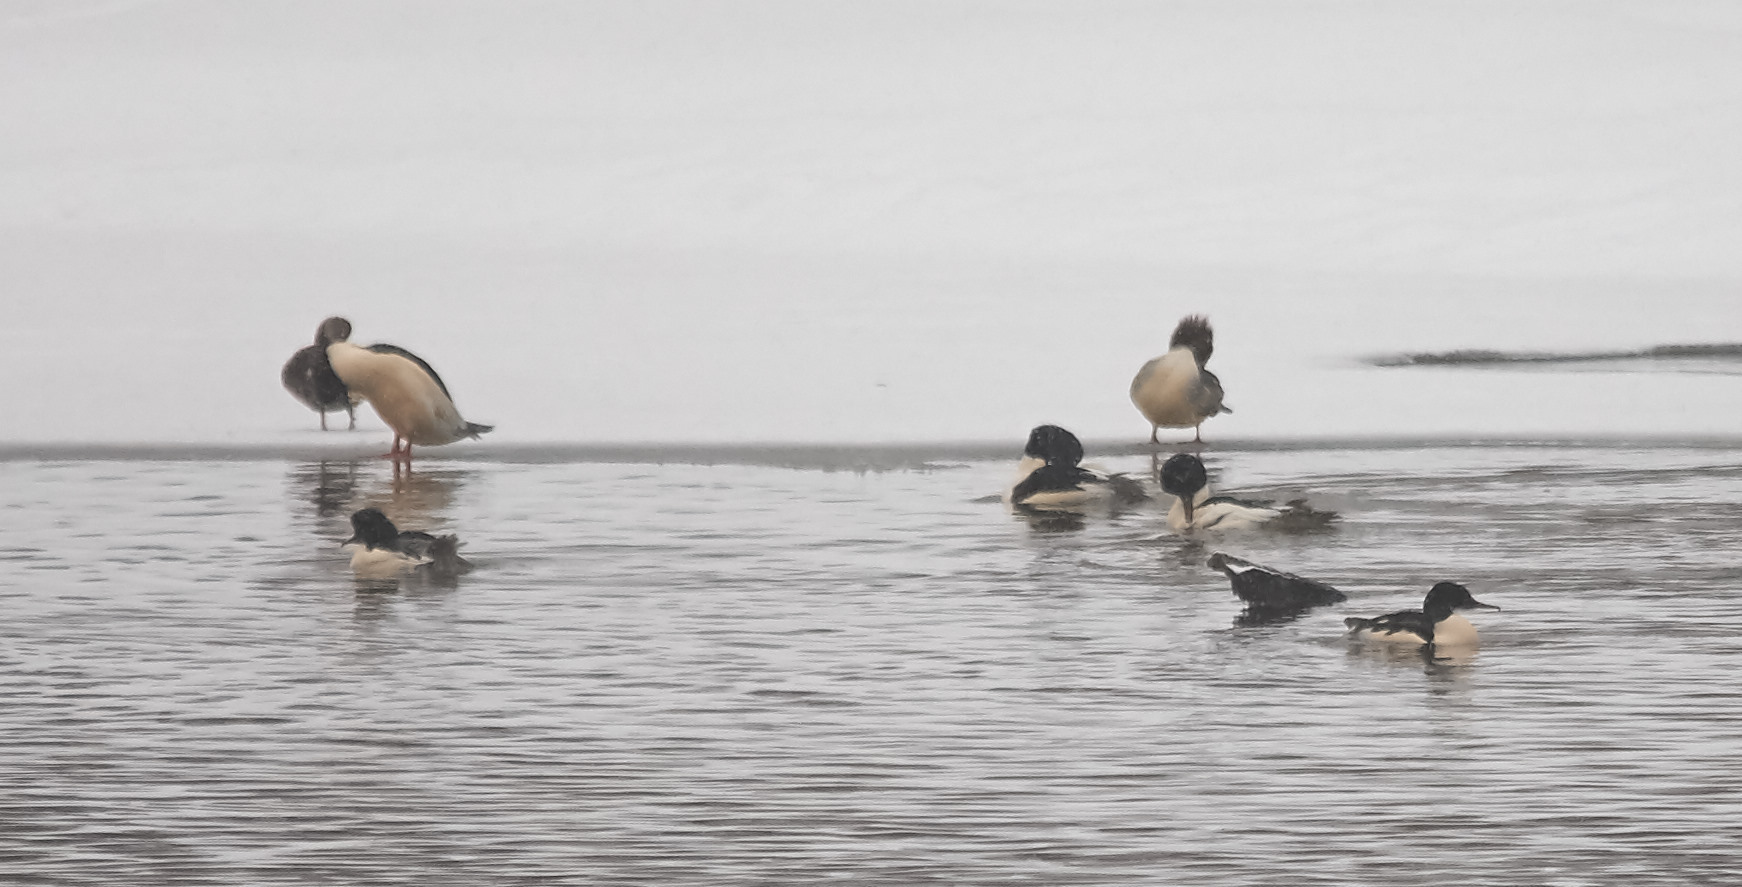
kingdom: Animalia
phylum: Chordata
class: Aves
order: Anseriformes
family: Anatidae
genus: Mergus
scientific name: Mergus merganser
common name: Common merganser
